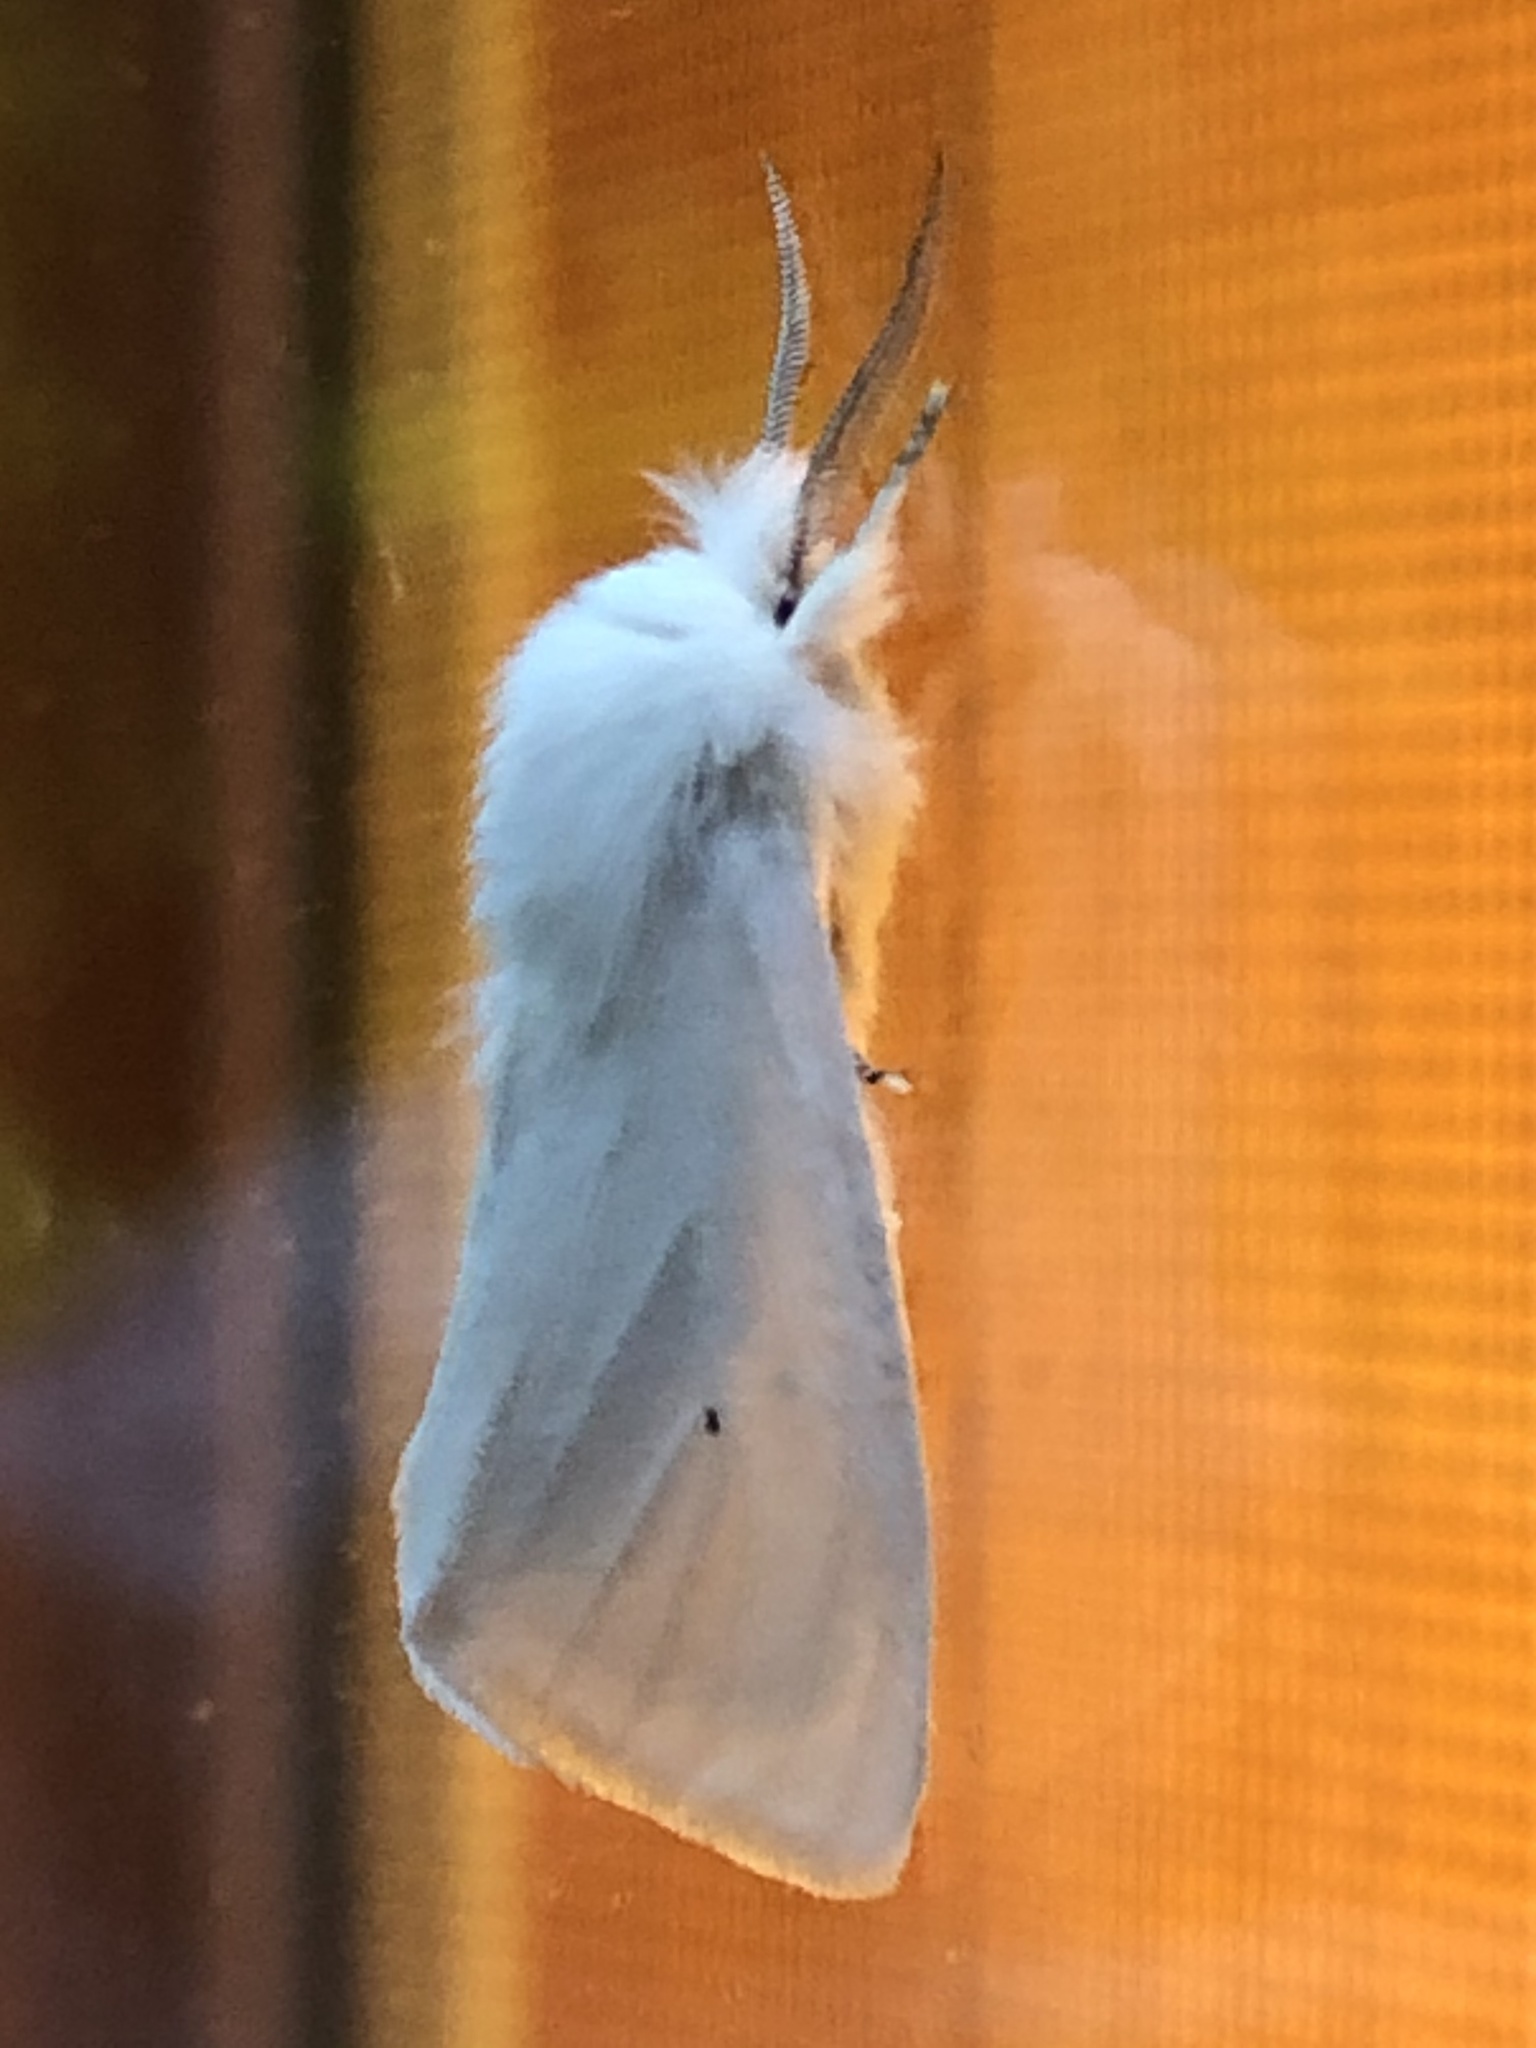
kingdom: Animalia
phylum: Arthropoda
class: Insecta
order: Lepidoptera
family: Erebidae
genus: Spilosoma
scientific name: Spilosoma virginica
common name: Virginia tiger moth
